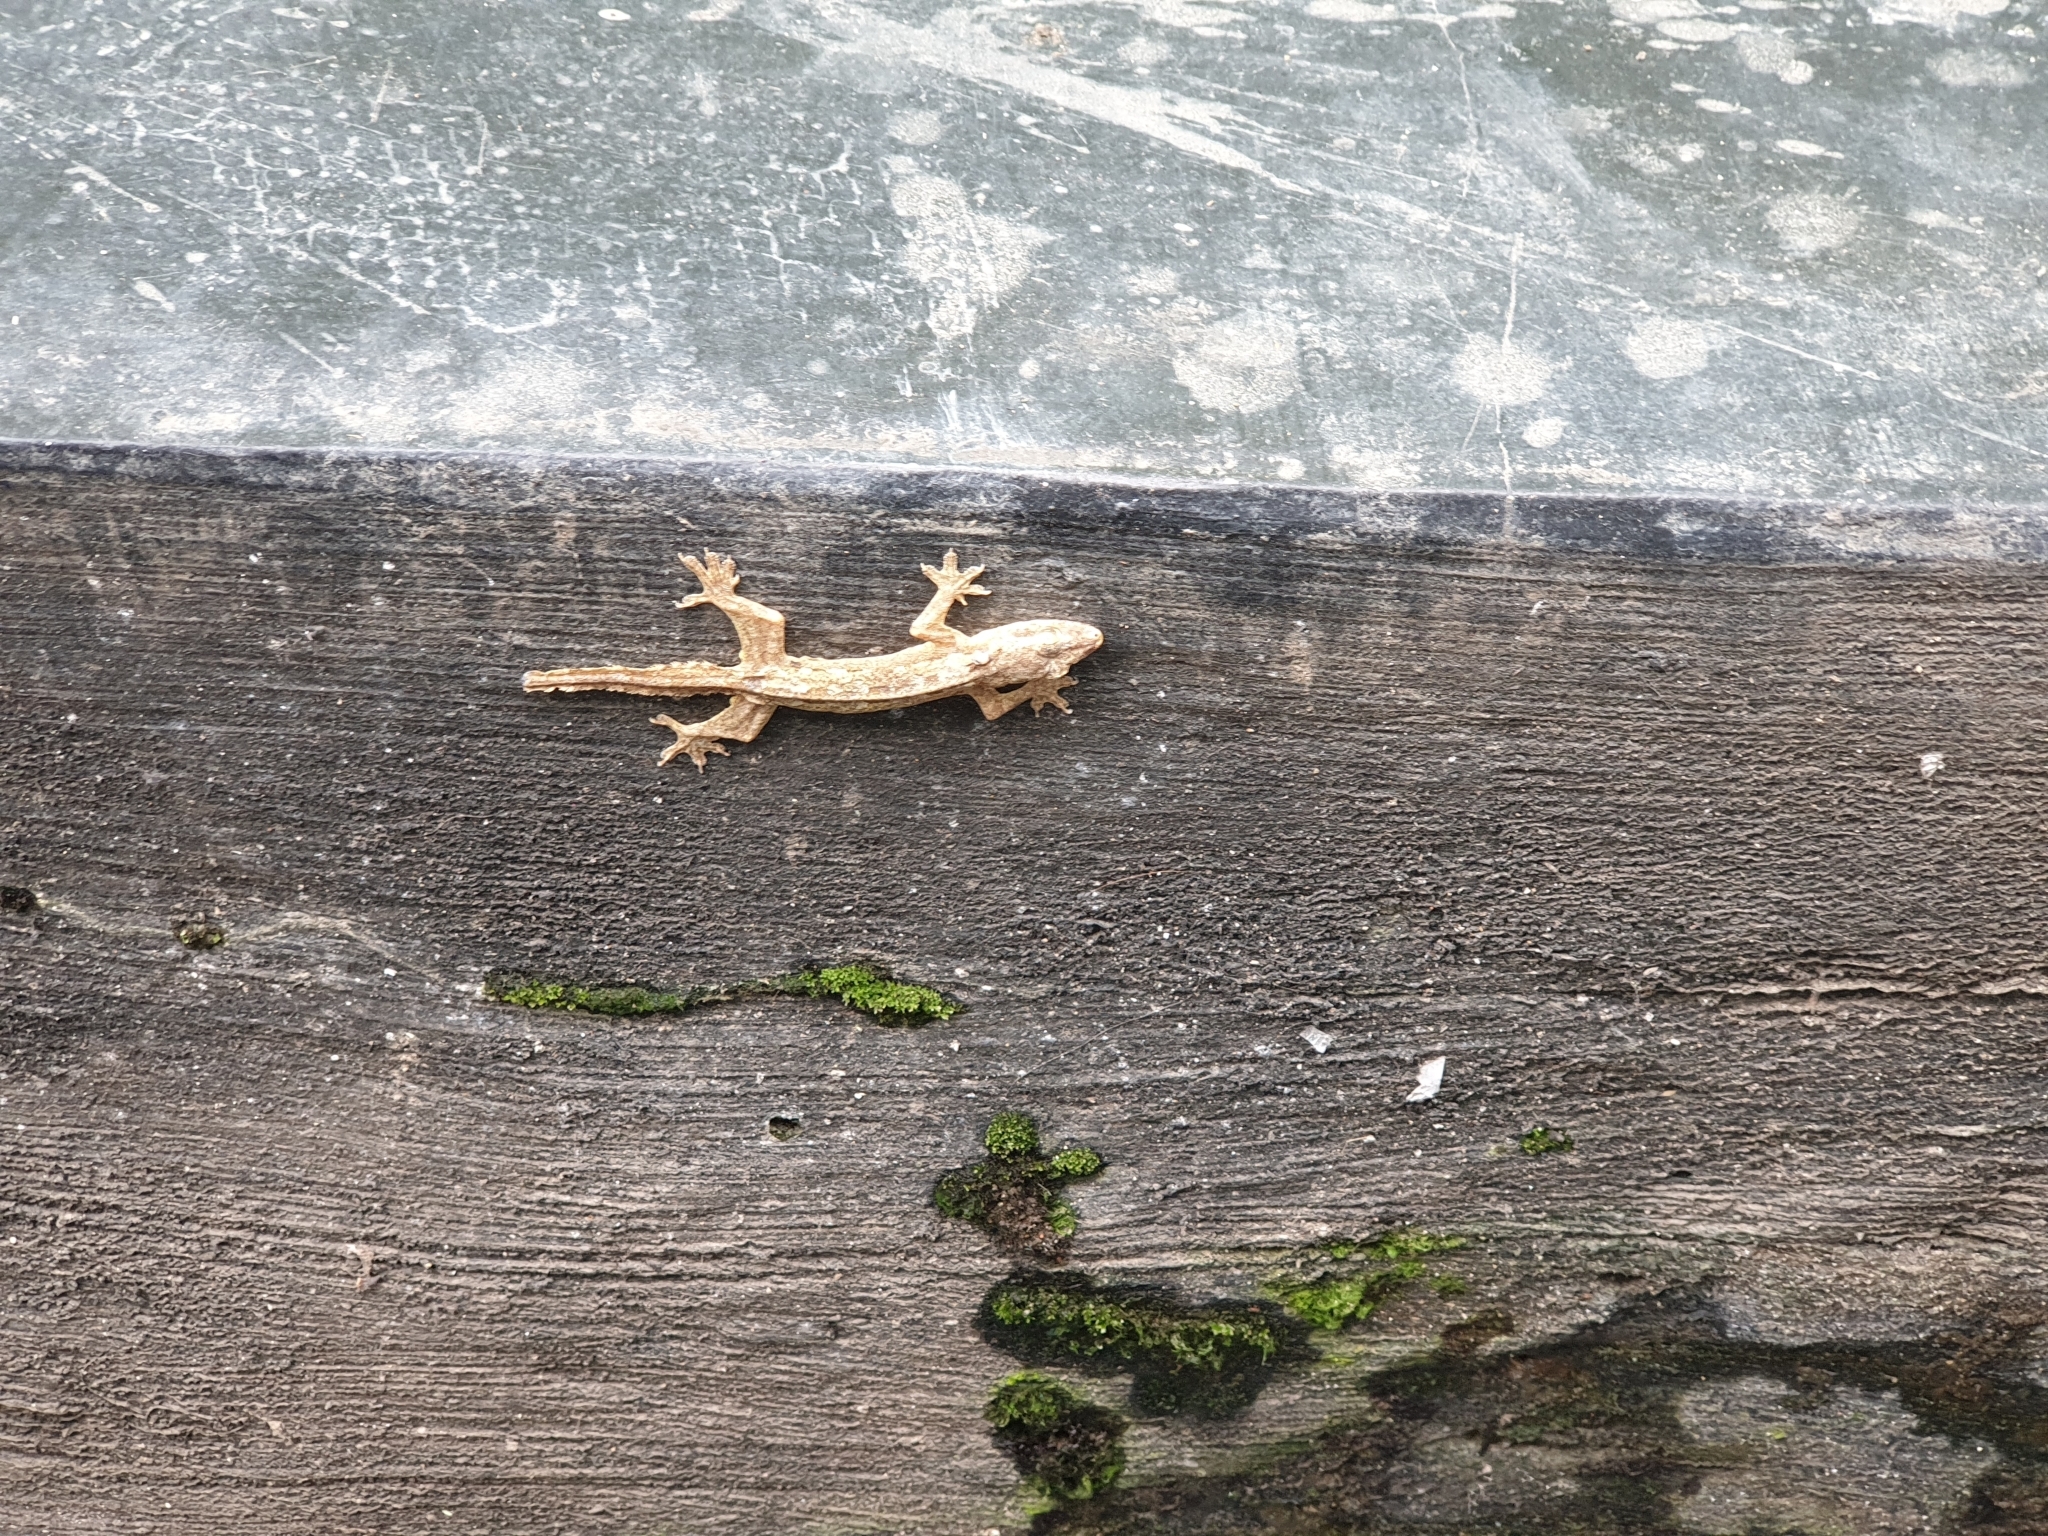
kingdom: Animalia
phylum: Chordata
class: Squamata
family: Gekkonidae
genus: Hemidactylus
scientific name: Hemidactylus platyurus
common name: Flat-tailed house gecko
